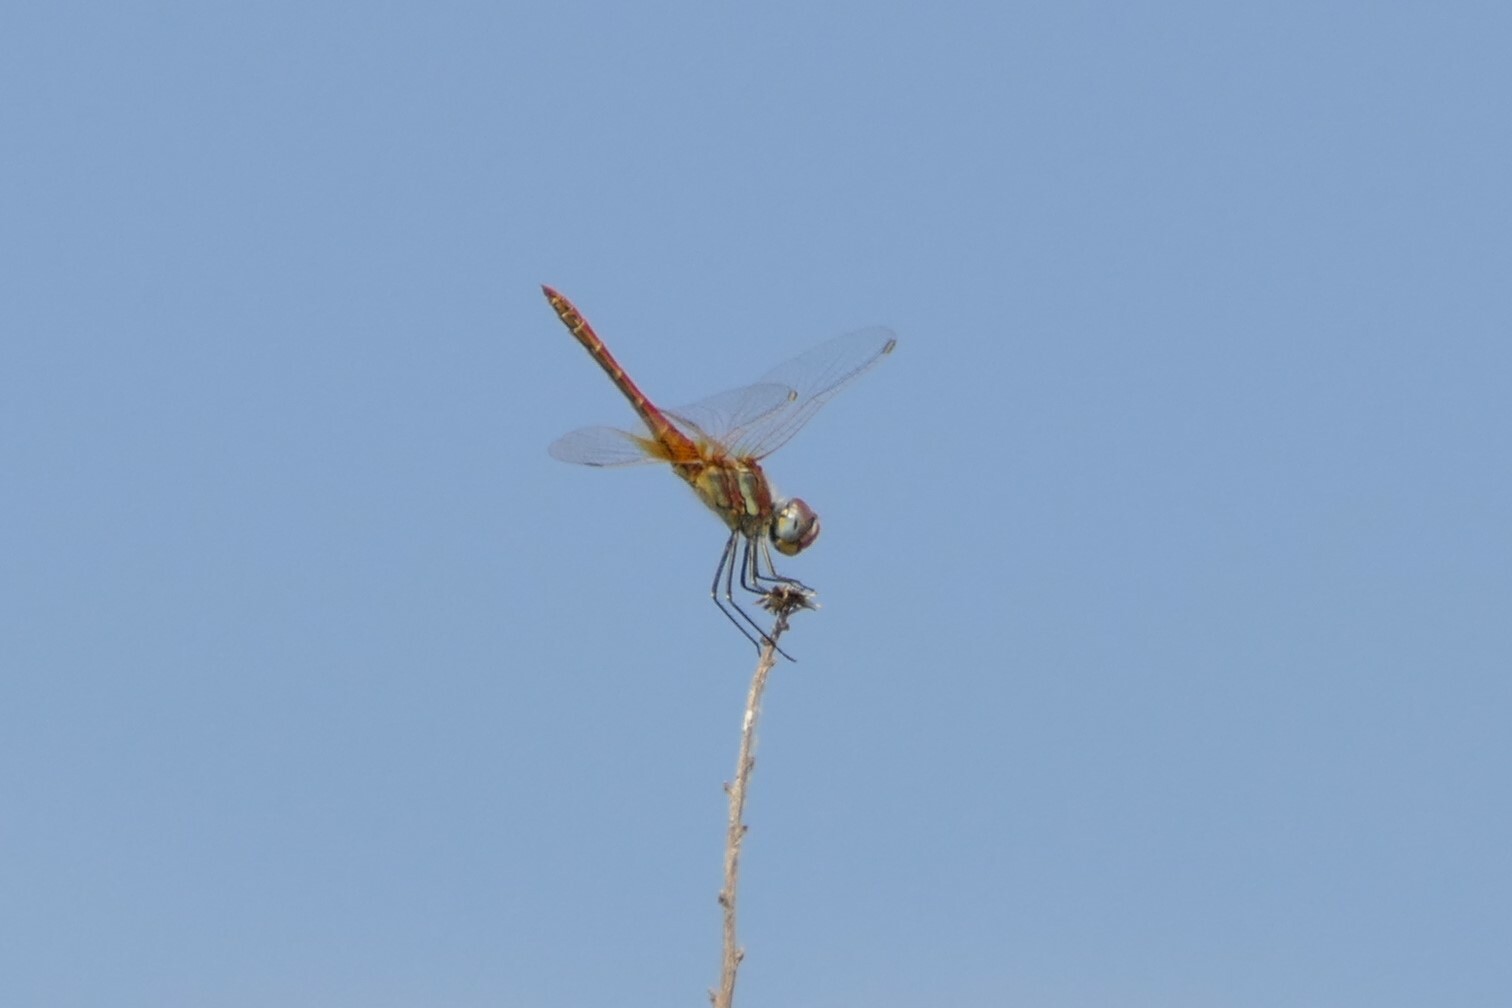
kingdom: Animalia
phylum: Arthropoda
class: Insecta
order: Odonata
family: Libellulidae
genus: Sympetrum
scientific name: Sympetrum fonscolombii
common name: Red-veined darter
